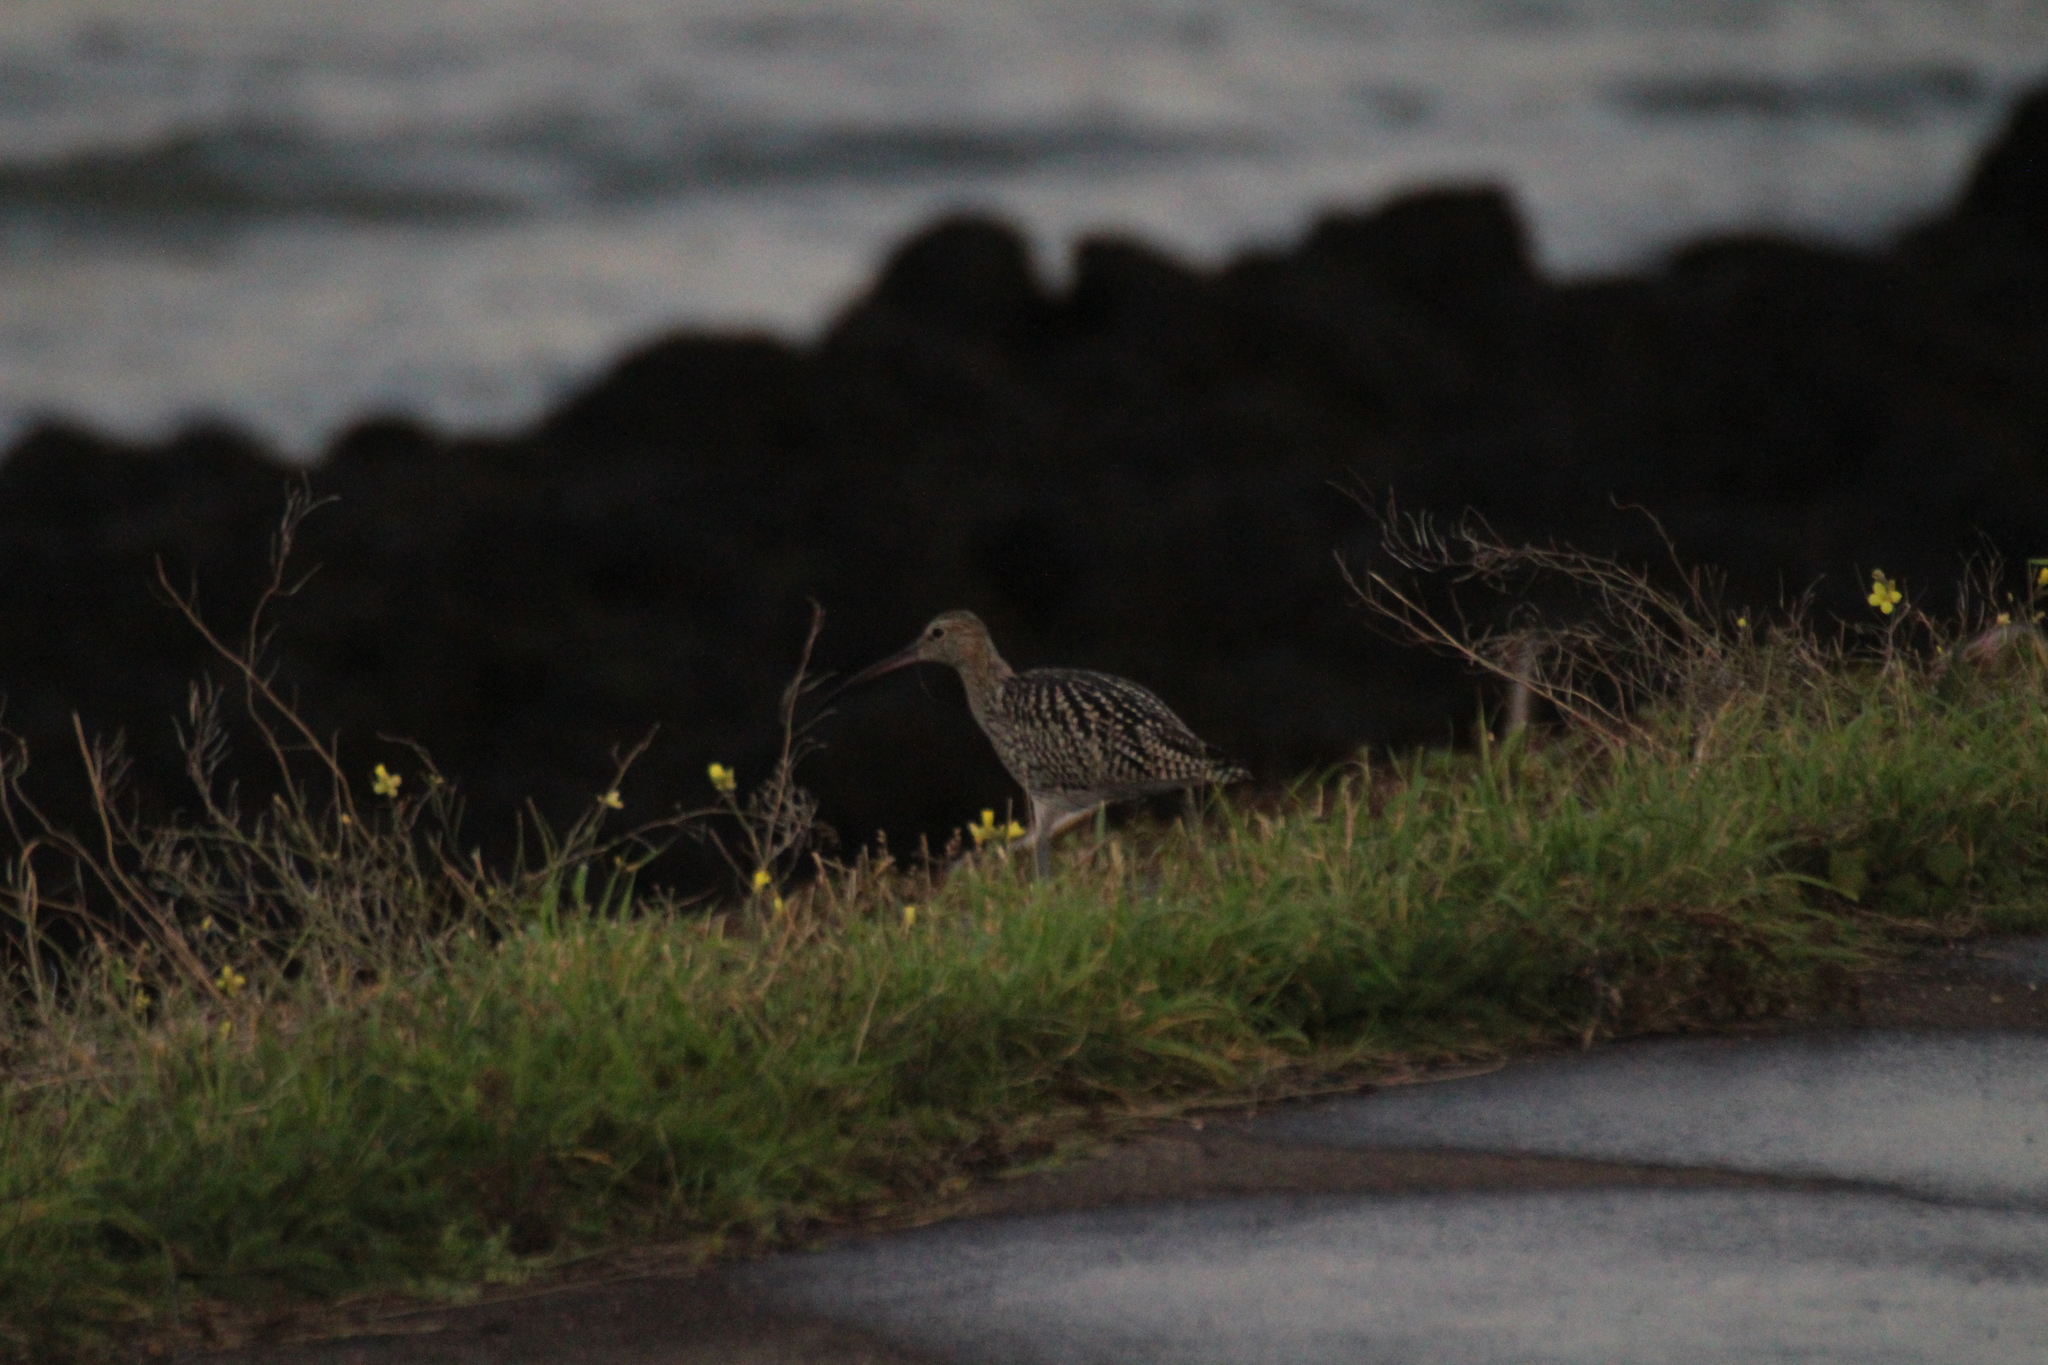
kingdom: Animalia
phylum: Chordata
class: Aves
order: Charadriiformes
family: Scolopacidae
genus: Numenius
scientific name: Numenius arquata
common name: Eurasian curlew
